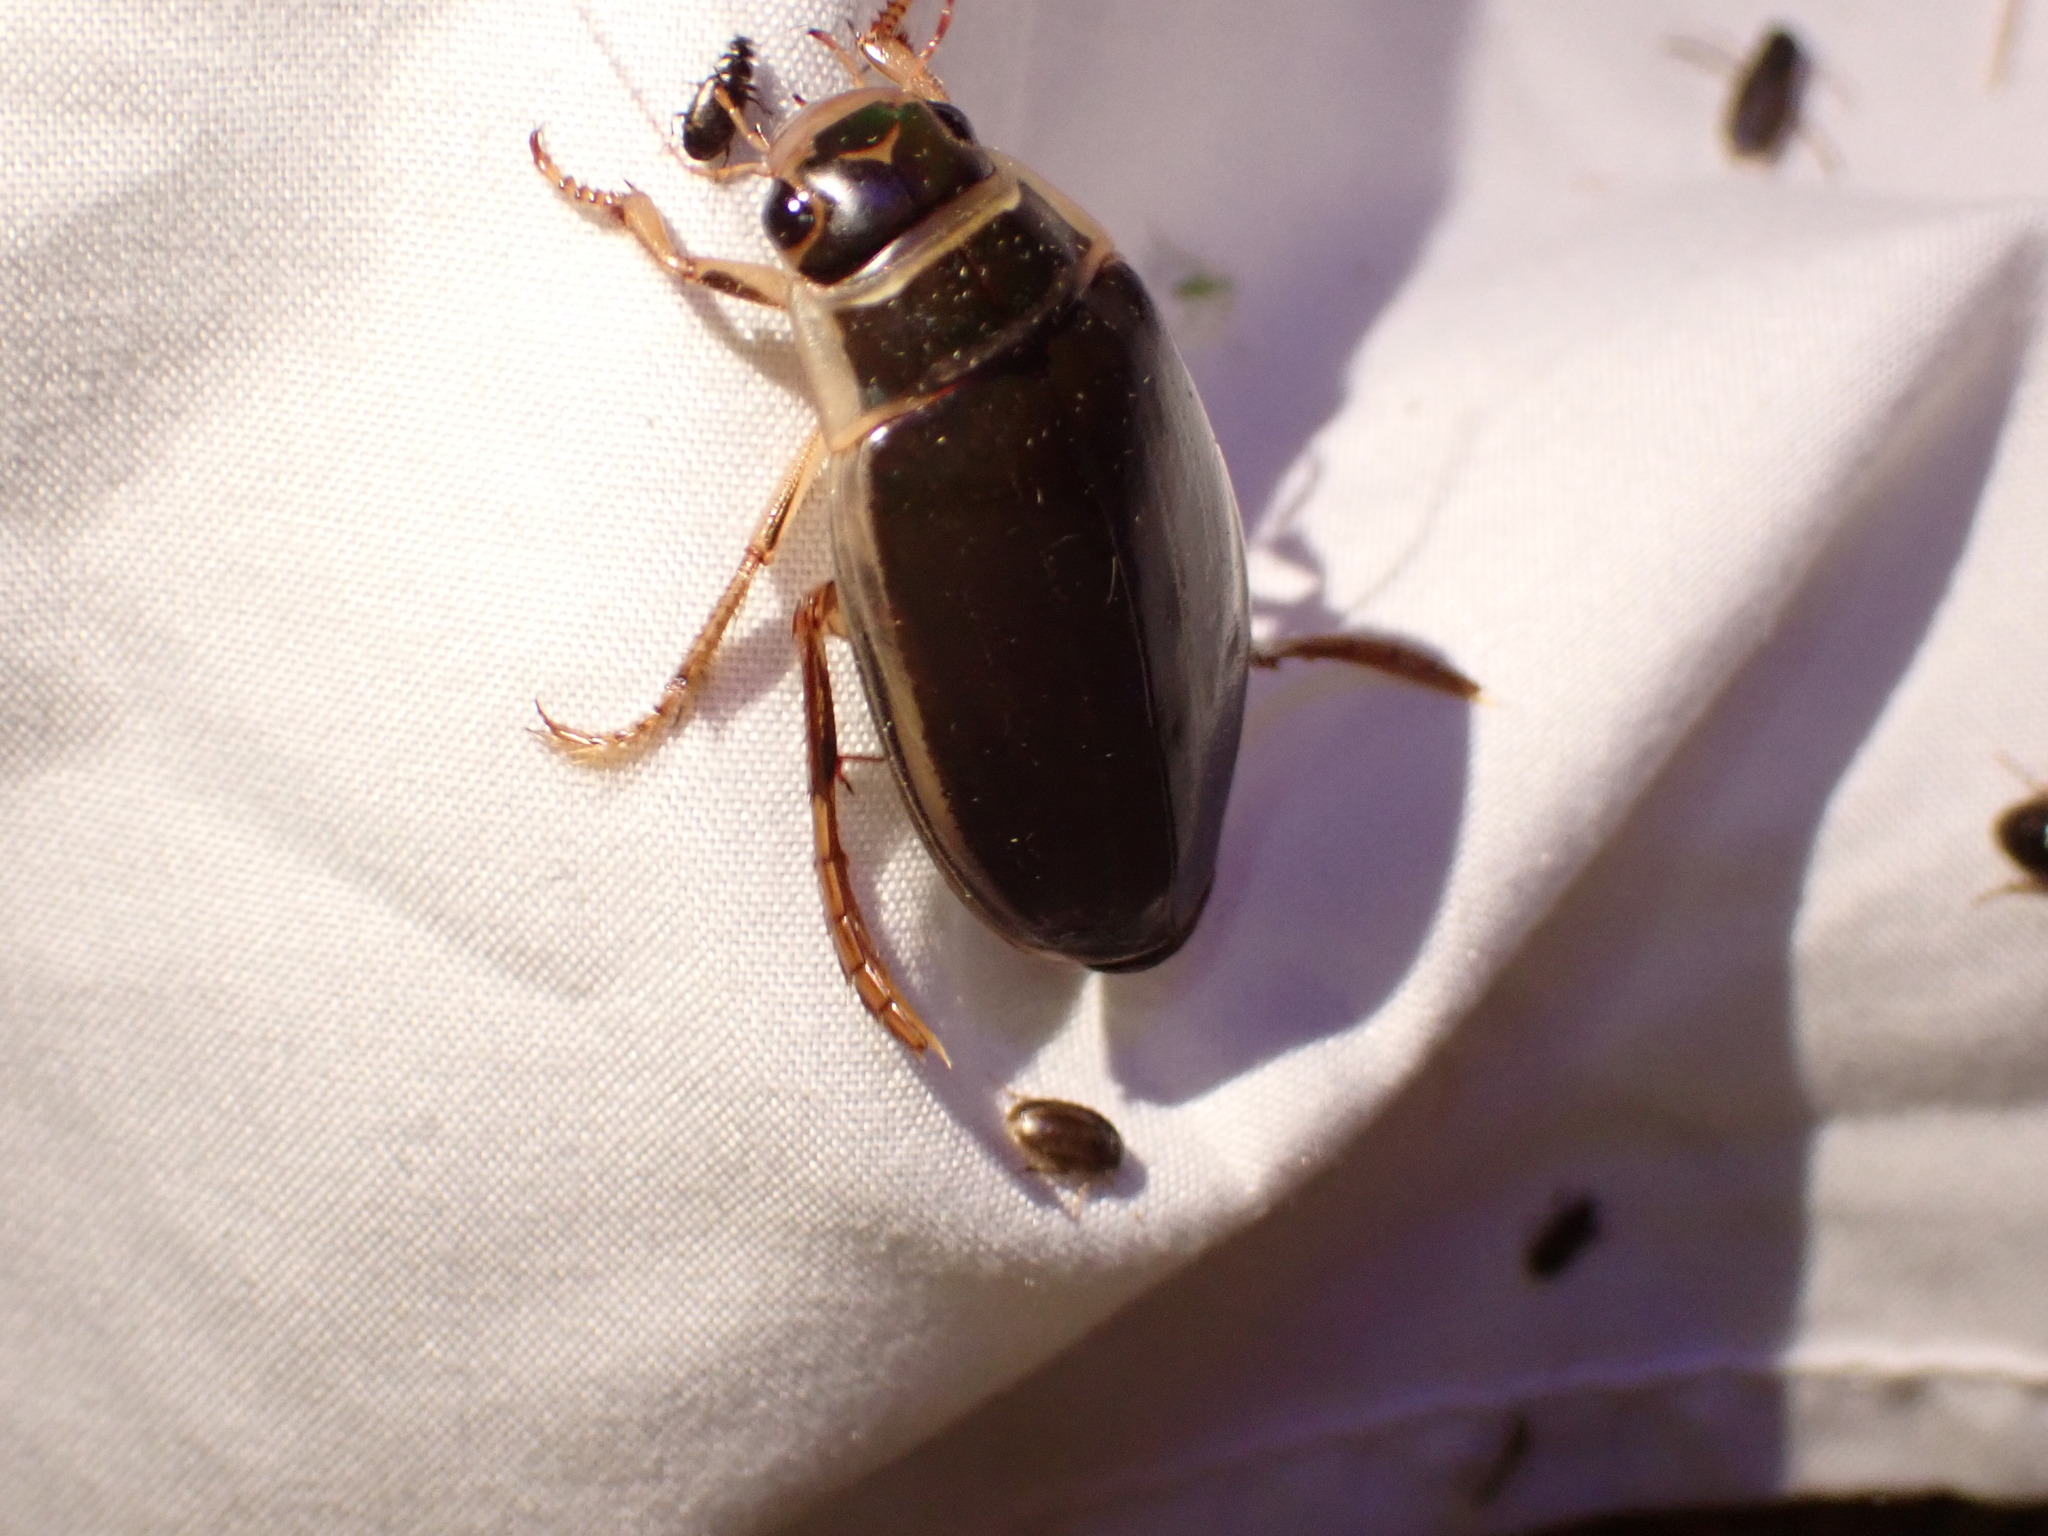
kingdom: Animalia
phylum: Arthropoda
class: Insecta
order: Coleoptera
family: Dytiscidae
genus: Dytiscus
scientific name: Dytiscus
